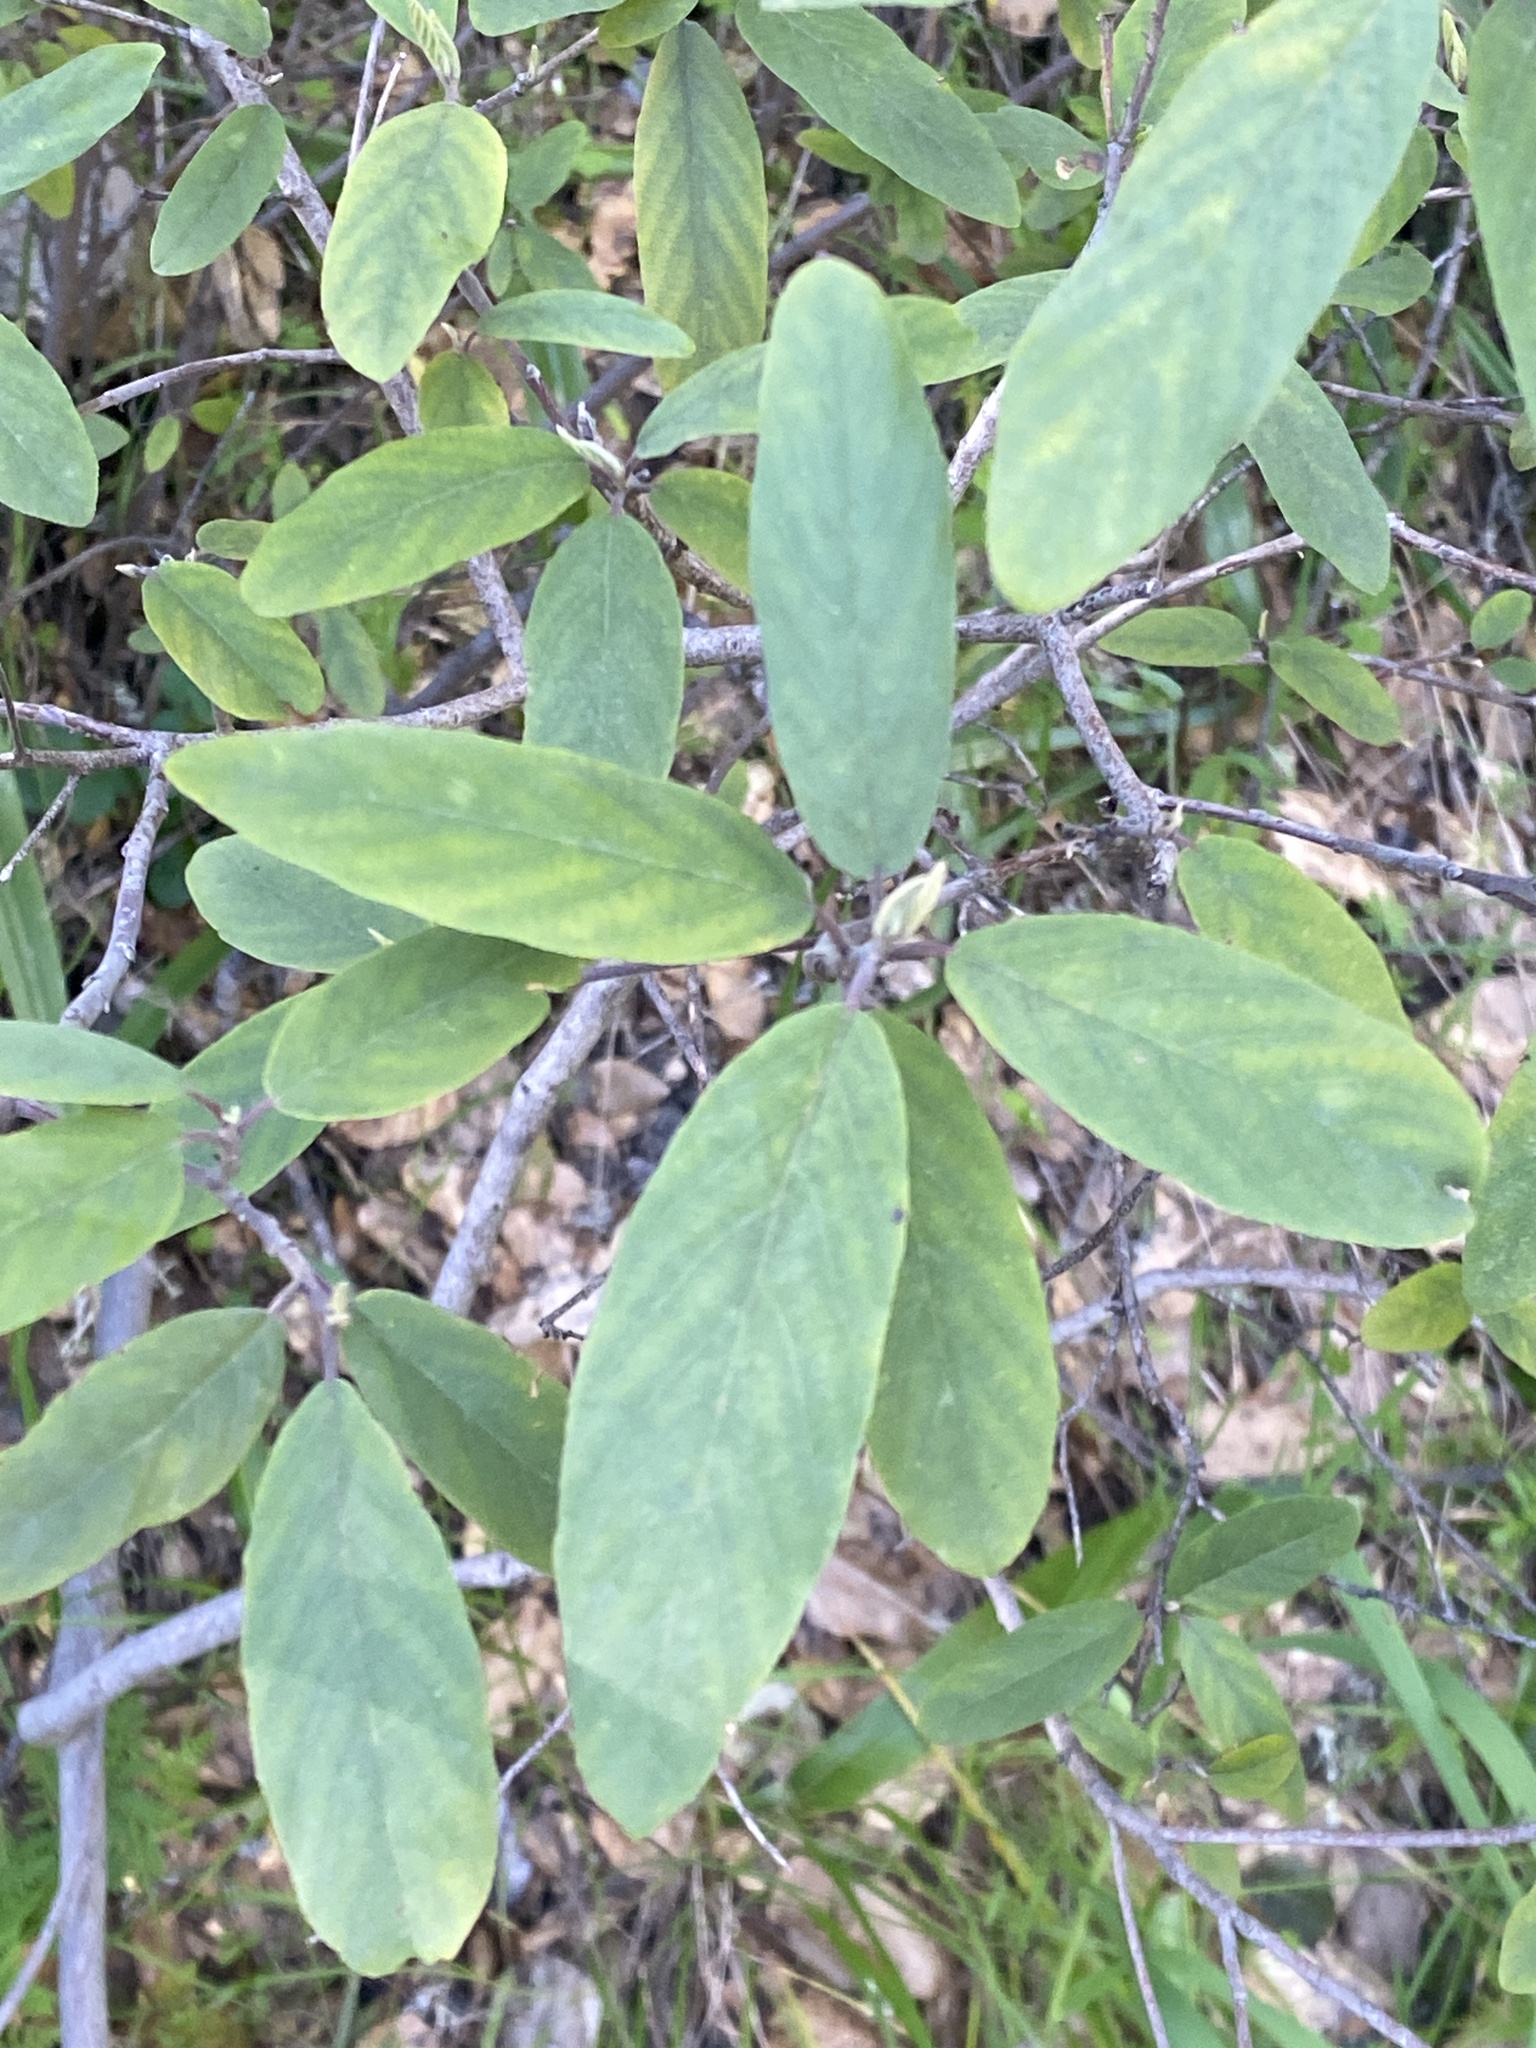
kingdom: Plantae
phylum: Tracheophyta
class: Magnoliopsida
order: Rosales
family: Rhamnaceae
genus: Frangula
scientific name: Frangula californica
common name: California buckthorn
